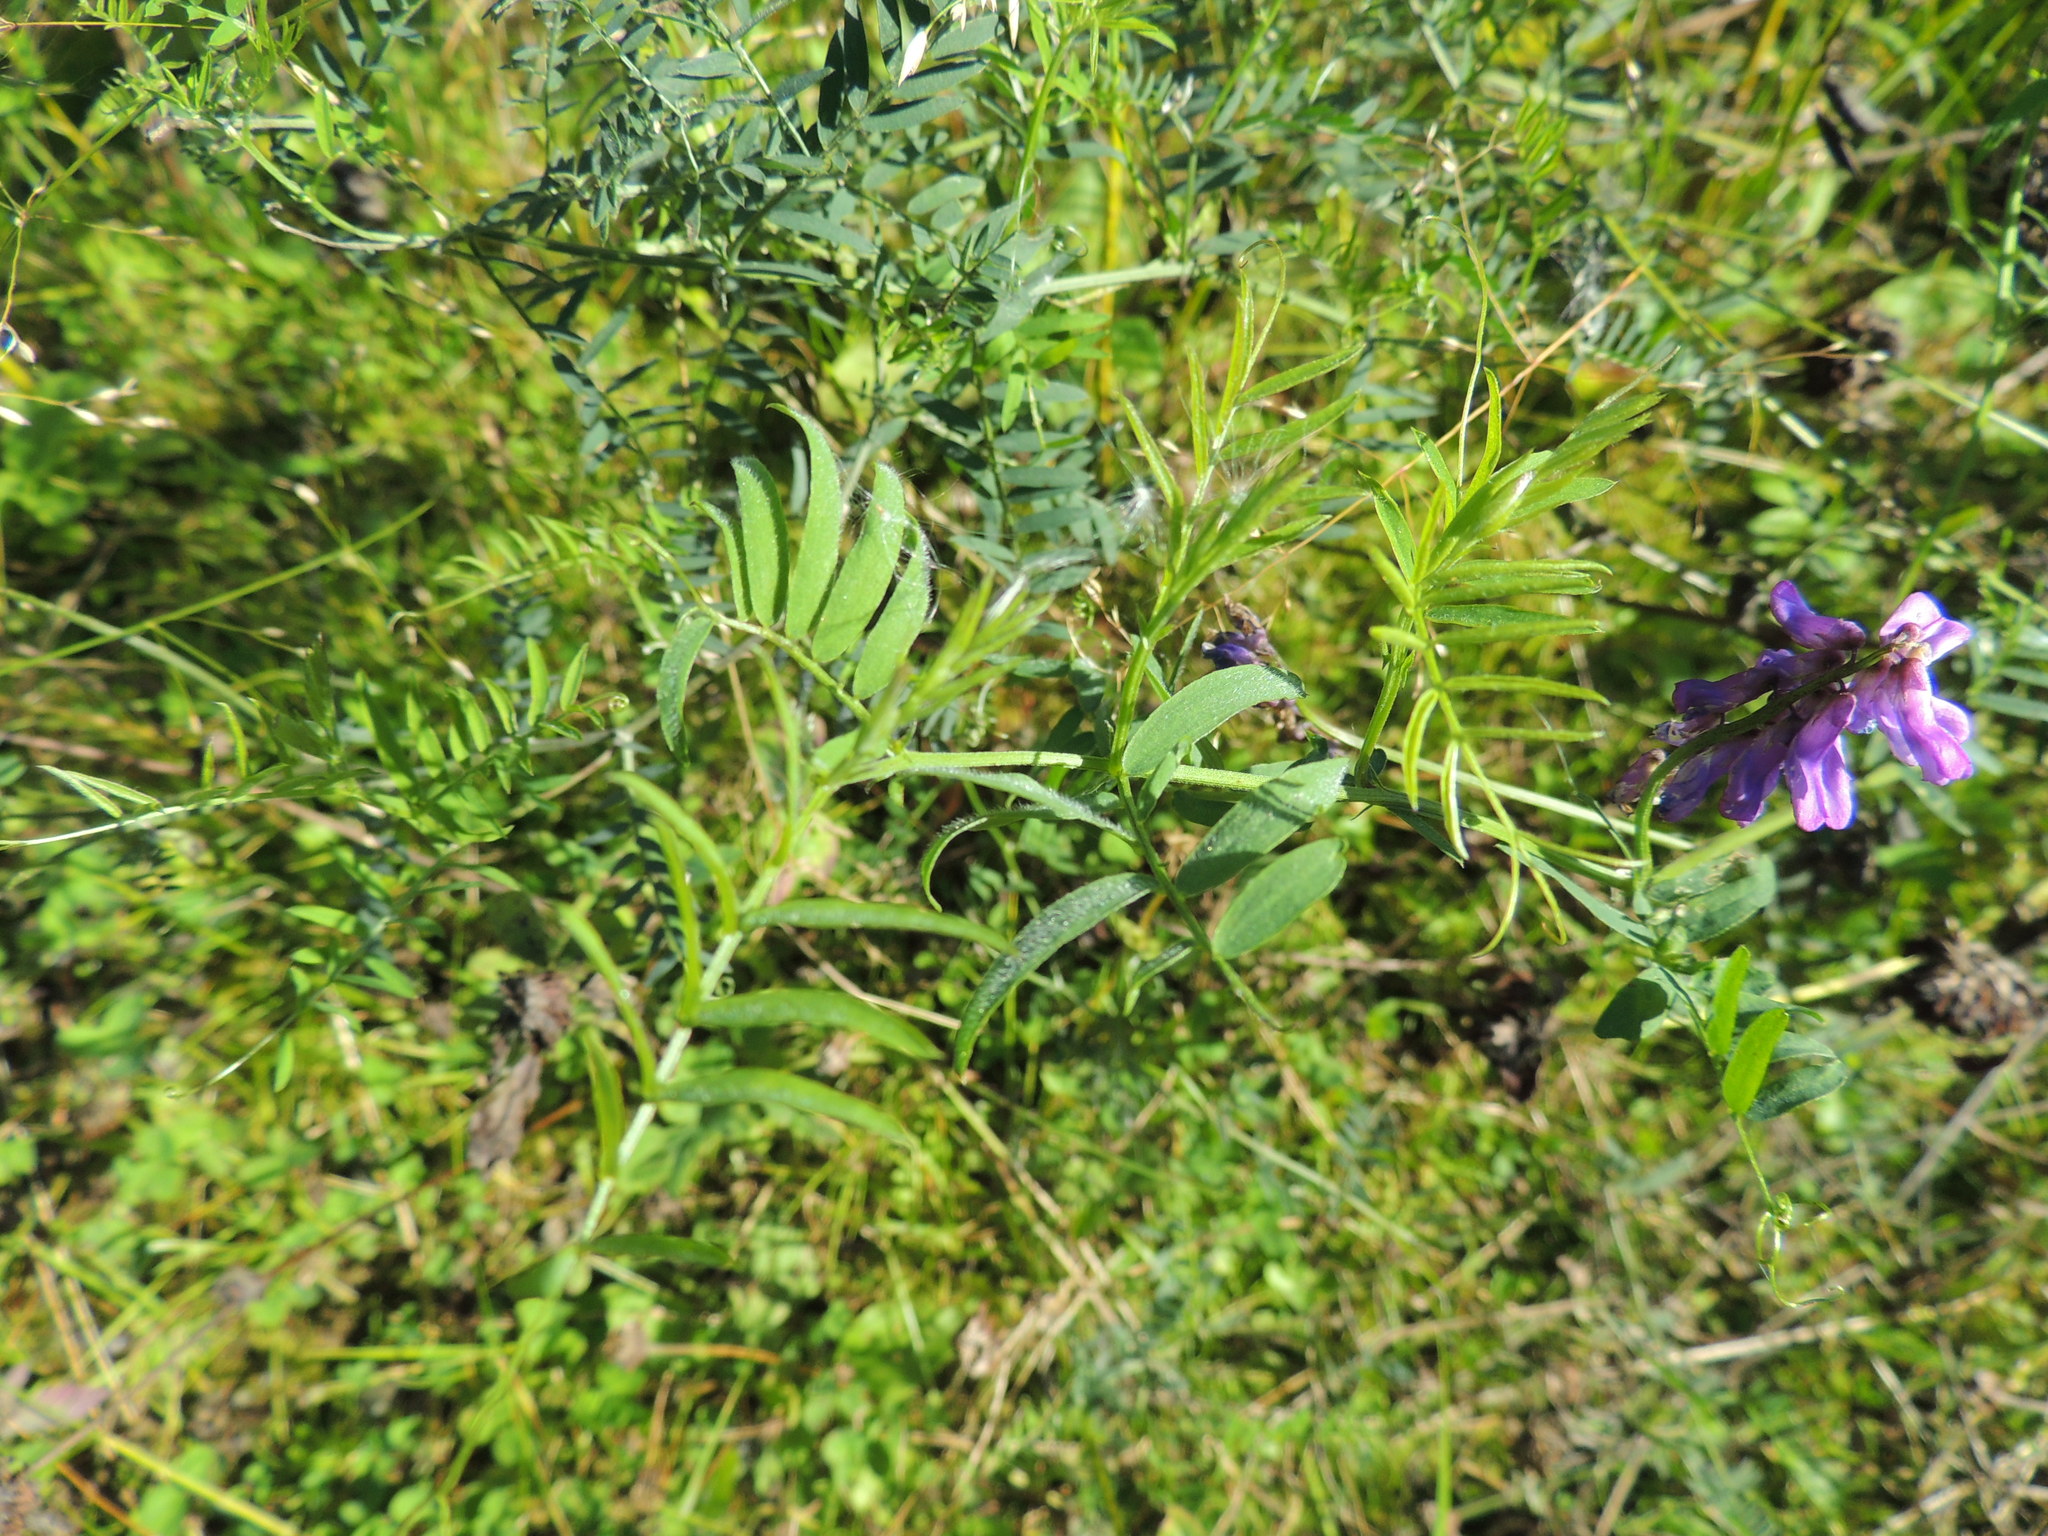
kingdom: Plantae
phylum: Tracheophyta
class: Magnoliopsida
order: Fabales
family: Fabaceae
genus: Vicia
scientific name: Vicia cracca
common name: Bird vetch
